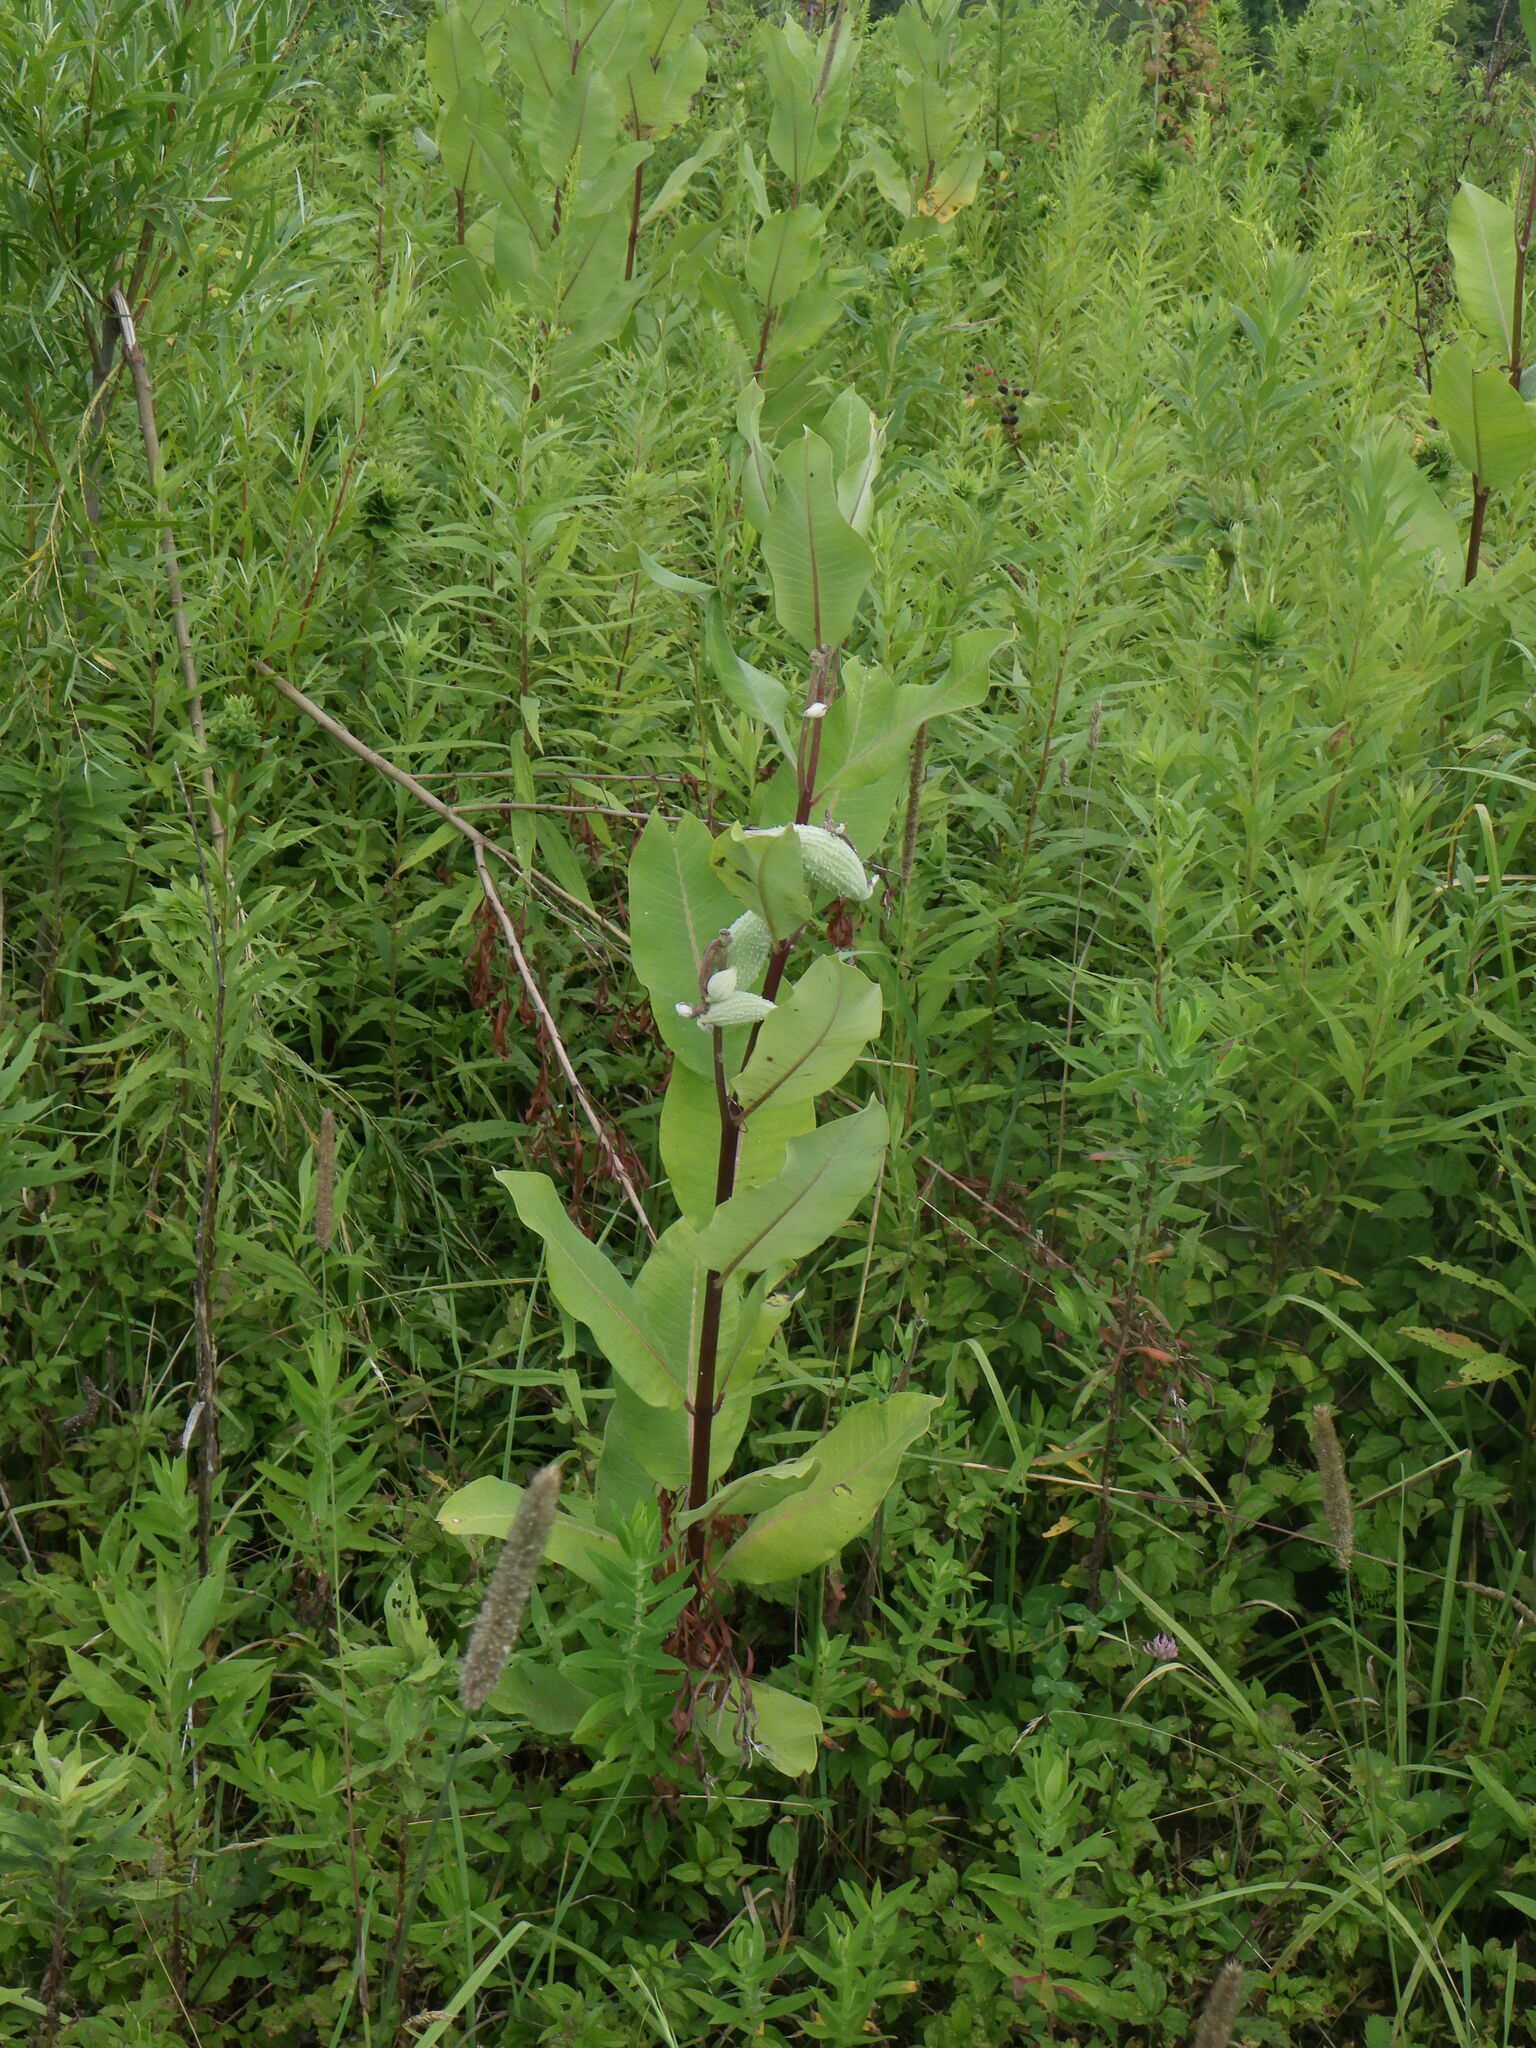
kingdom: Plantae
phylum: Tracheophyta
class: Magnoliopsida
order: Gentianales
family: Apocynaceae
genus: Asclepias
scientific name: Asclepias syriaca
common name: Common milkweed
